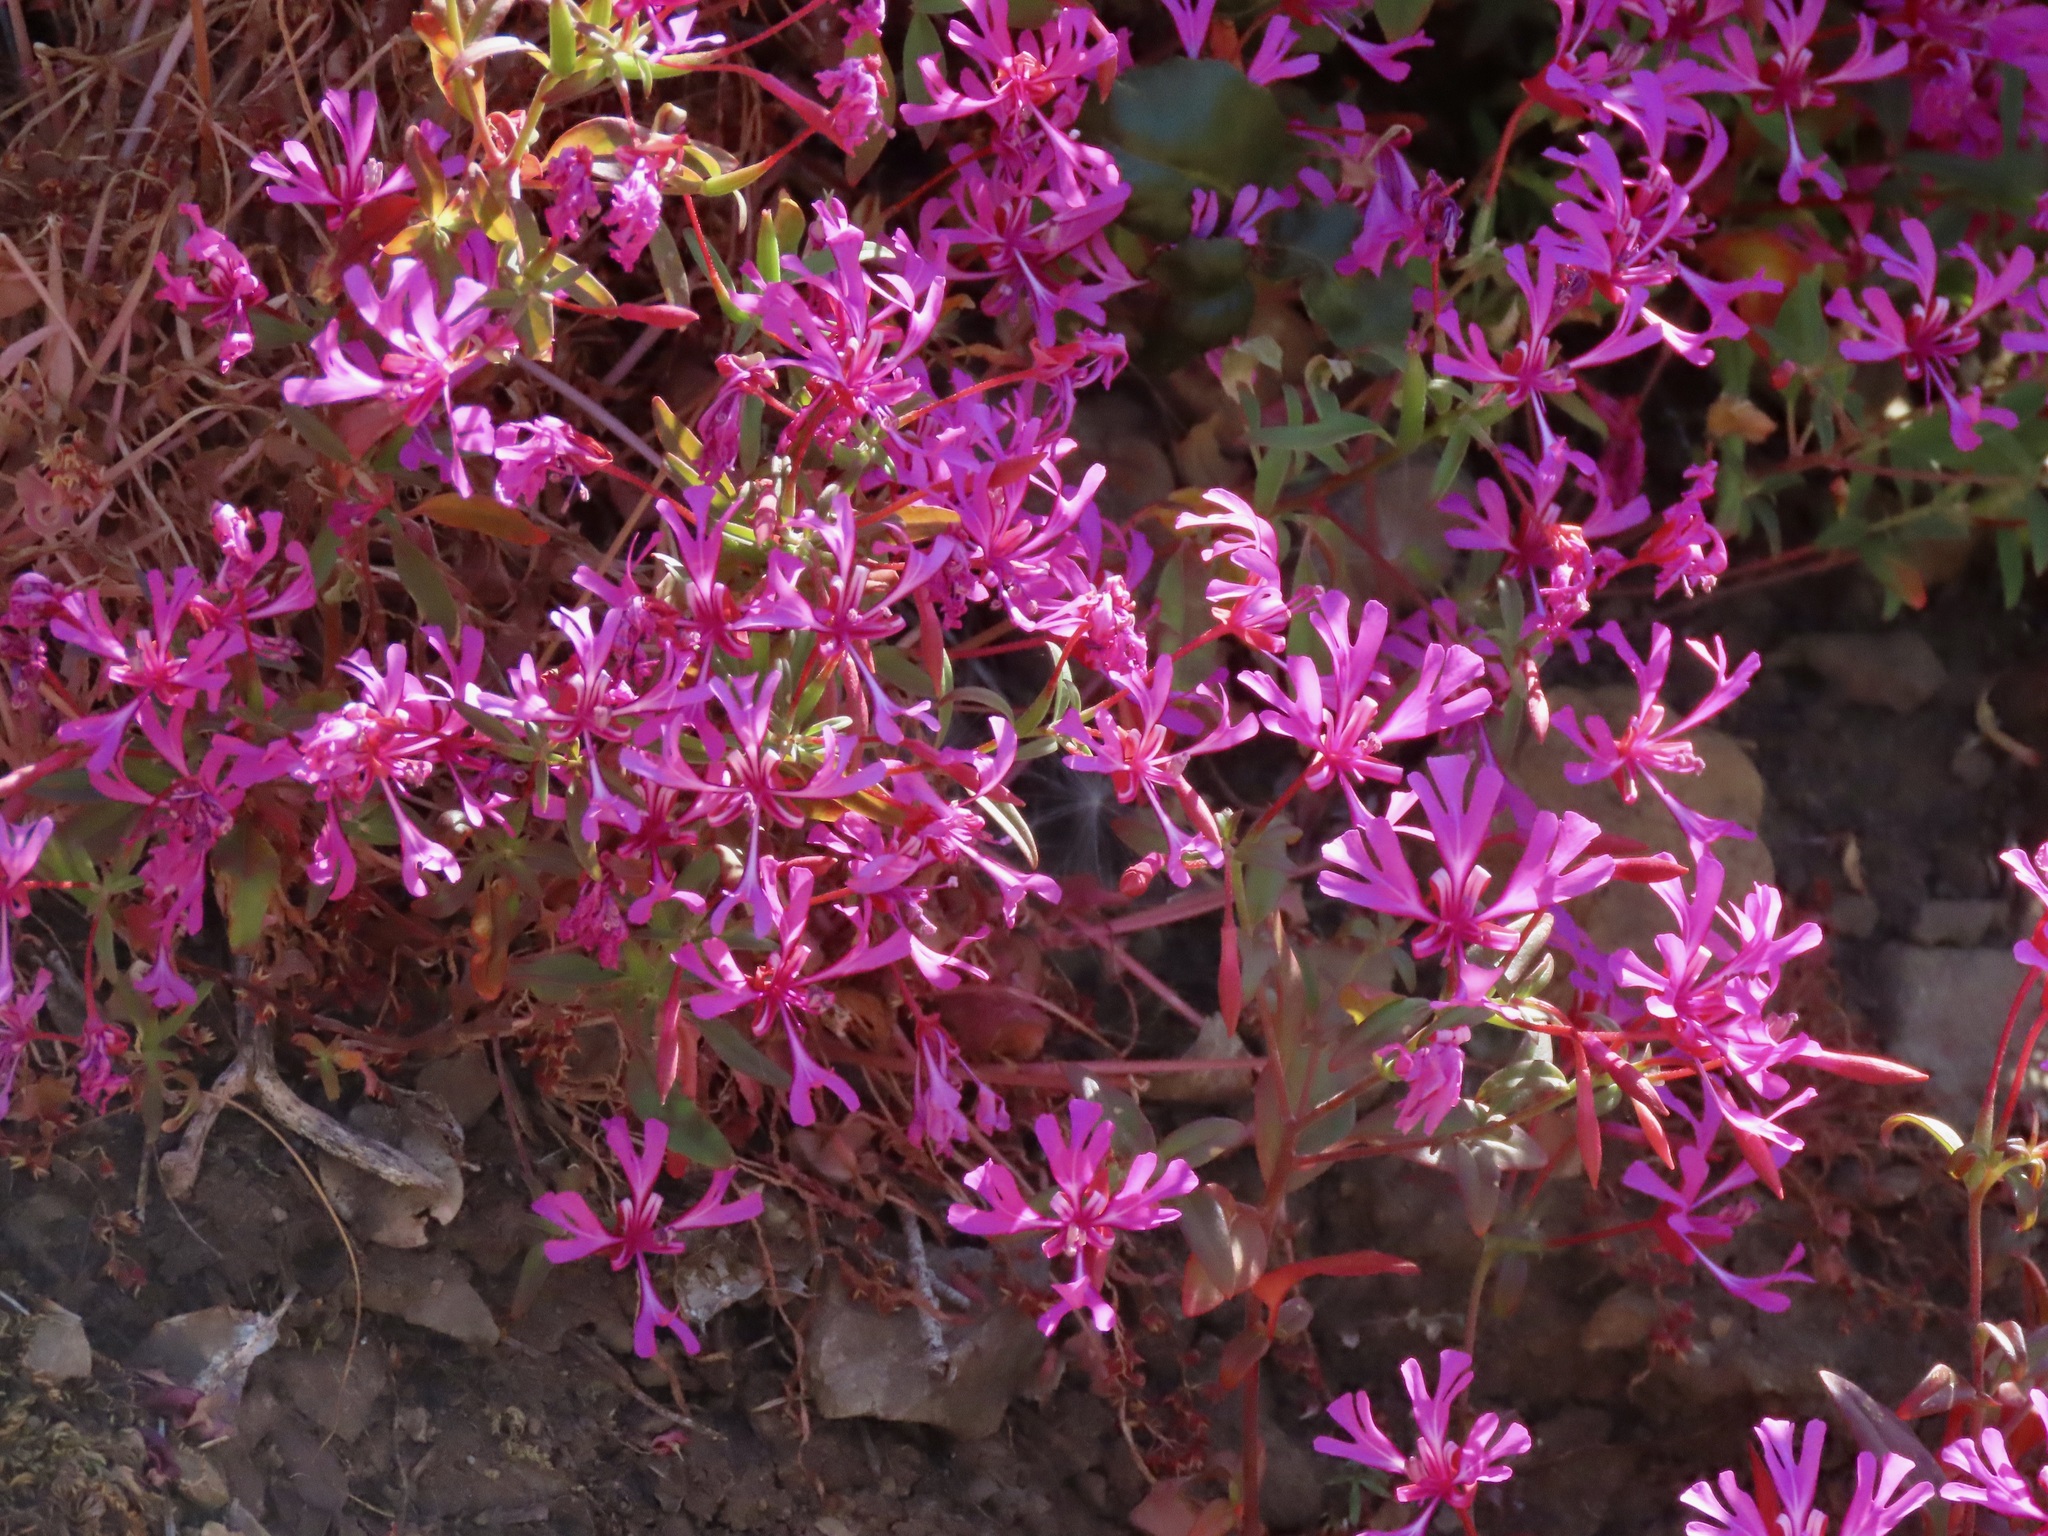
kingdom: Plantae
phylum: Tracheophyta
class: Magnoliopsida
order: Myrtales
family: Onagraceae
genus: Clarkia
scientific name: Clarkia concinna
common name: Red-ribbons
